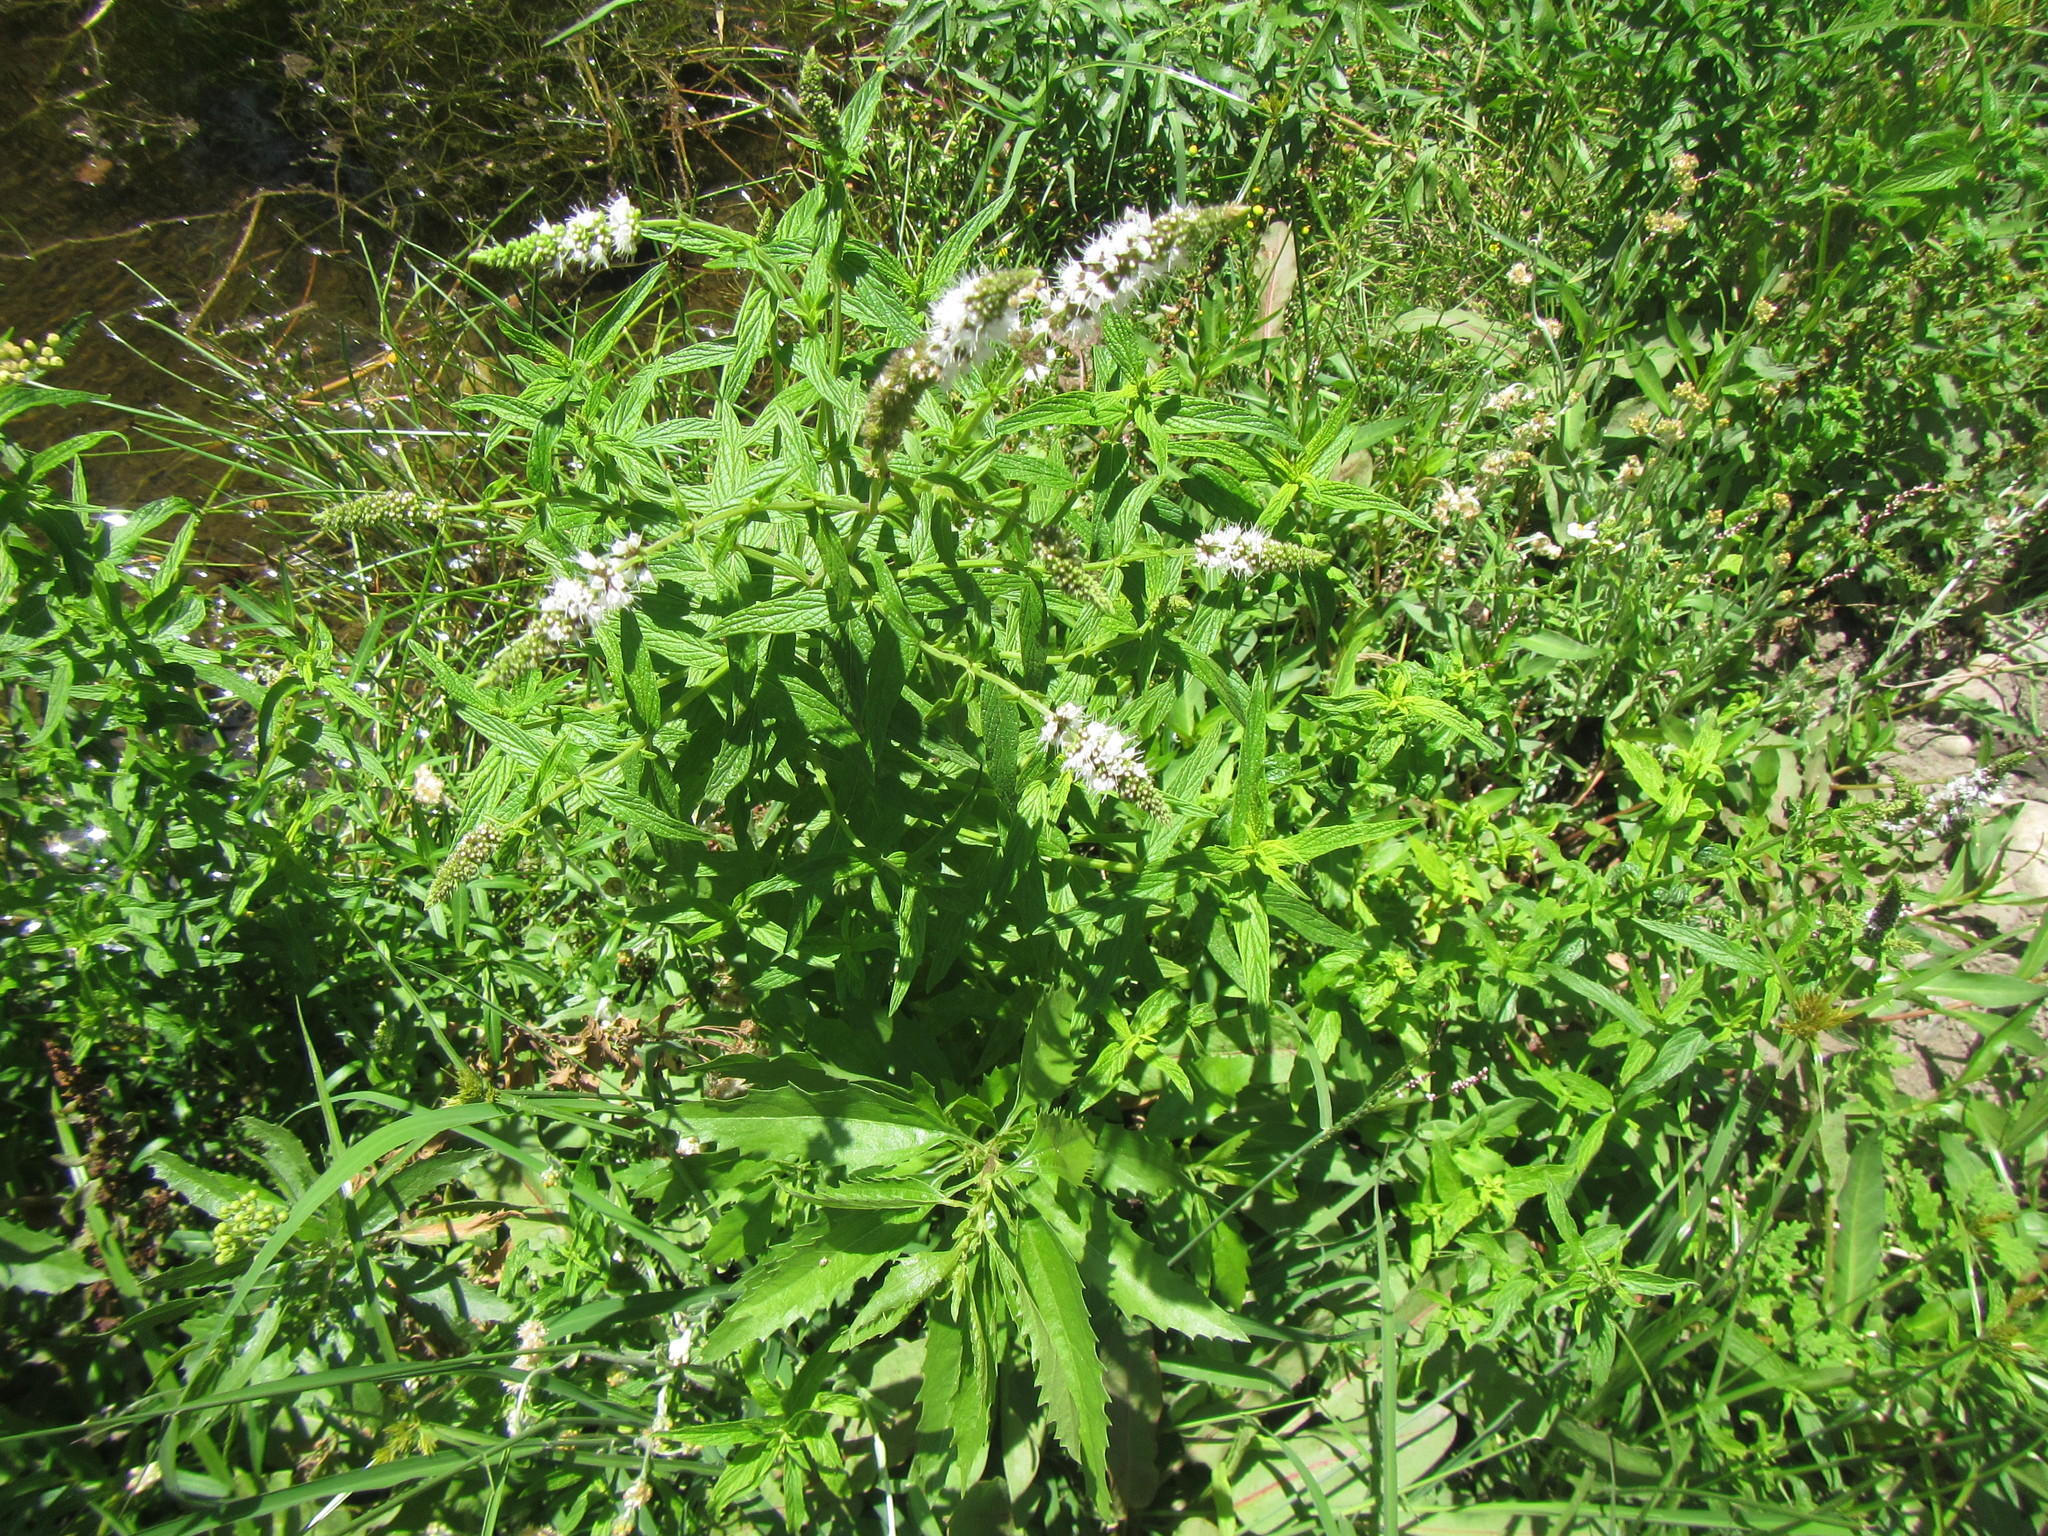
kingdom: Plantae
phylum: Tracheophyta
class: Magnoliopsida
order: Lamiales
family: Lamiaceae
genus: Mentha
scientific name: Mentha longifolia
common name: Horse mint
